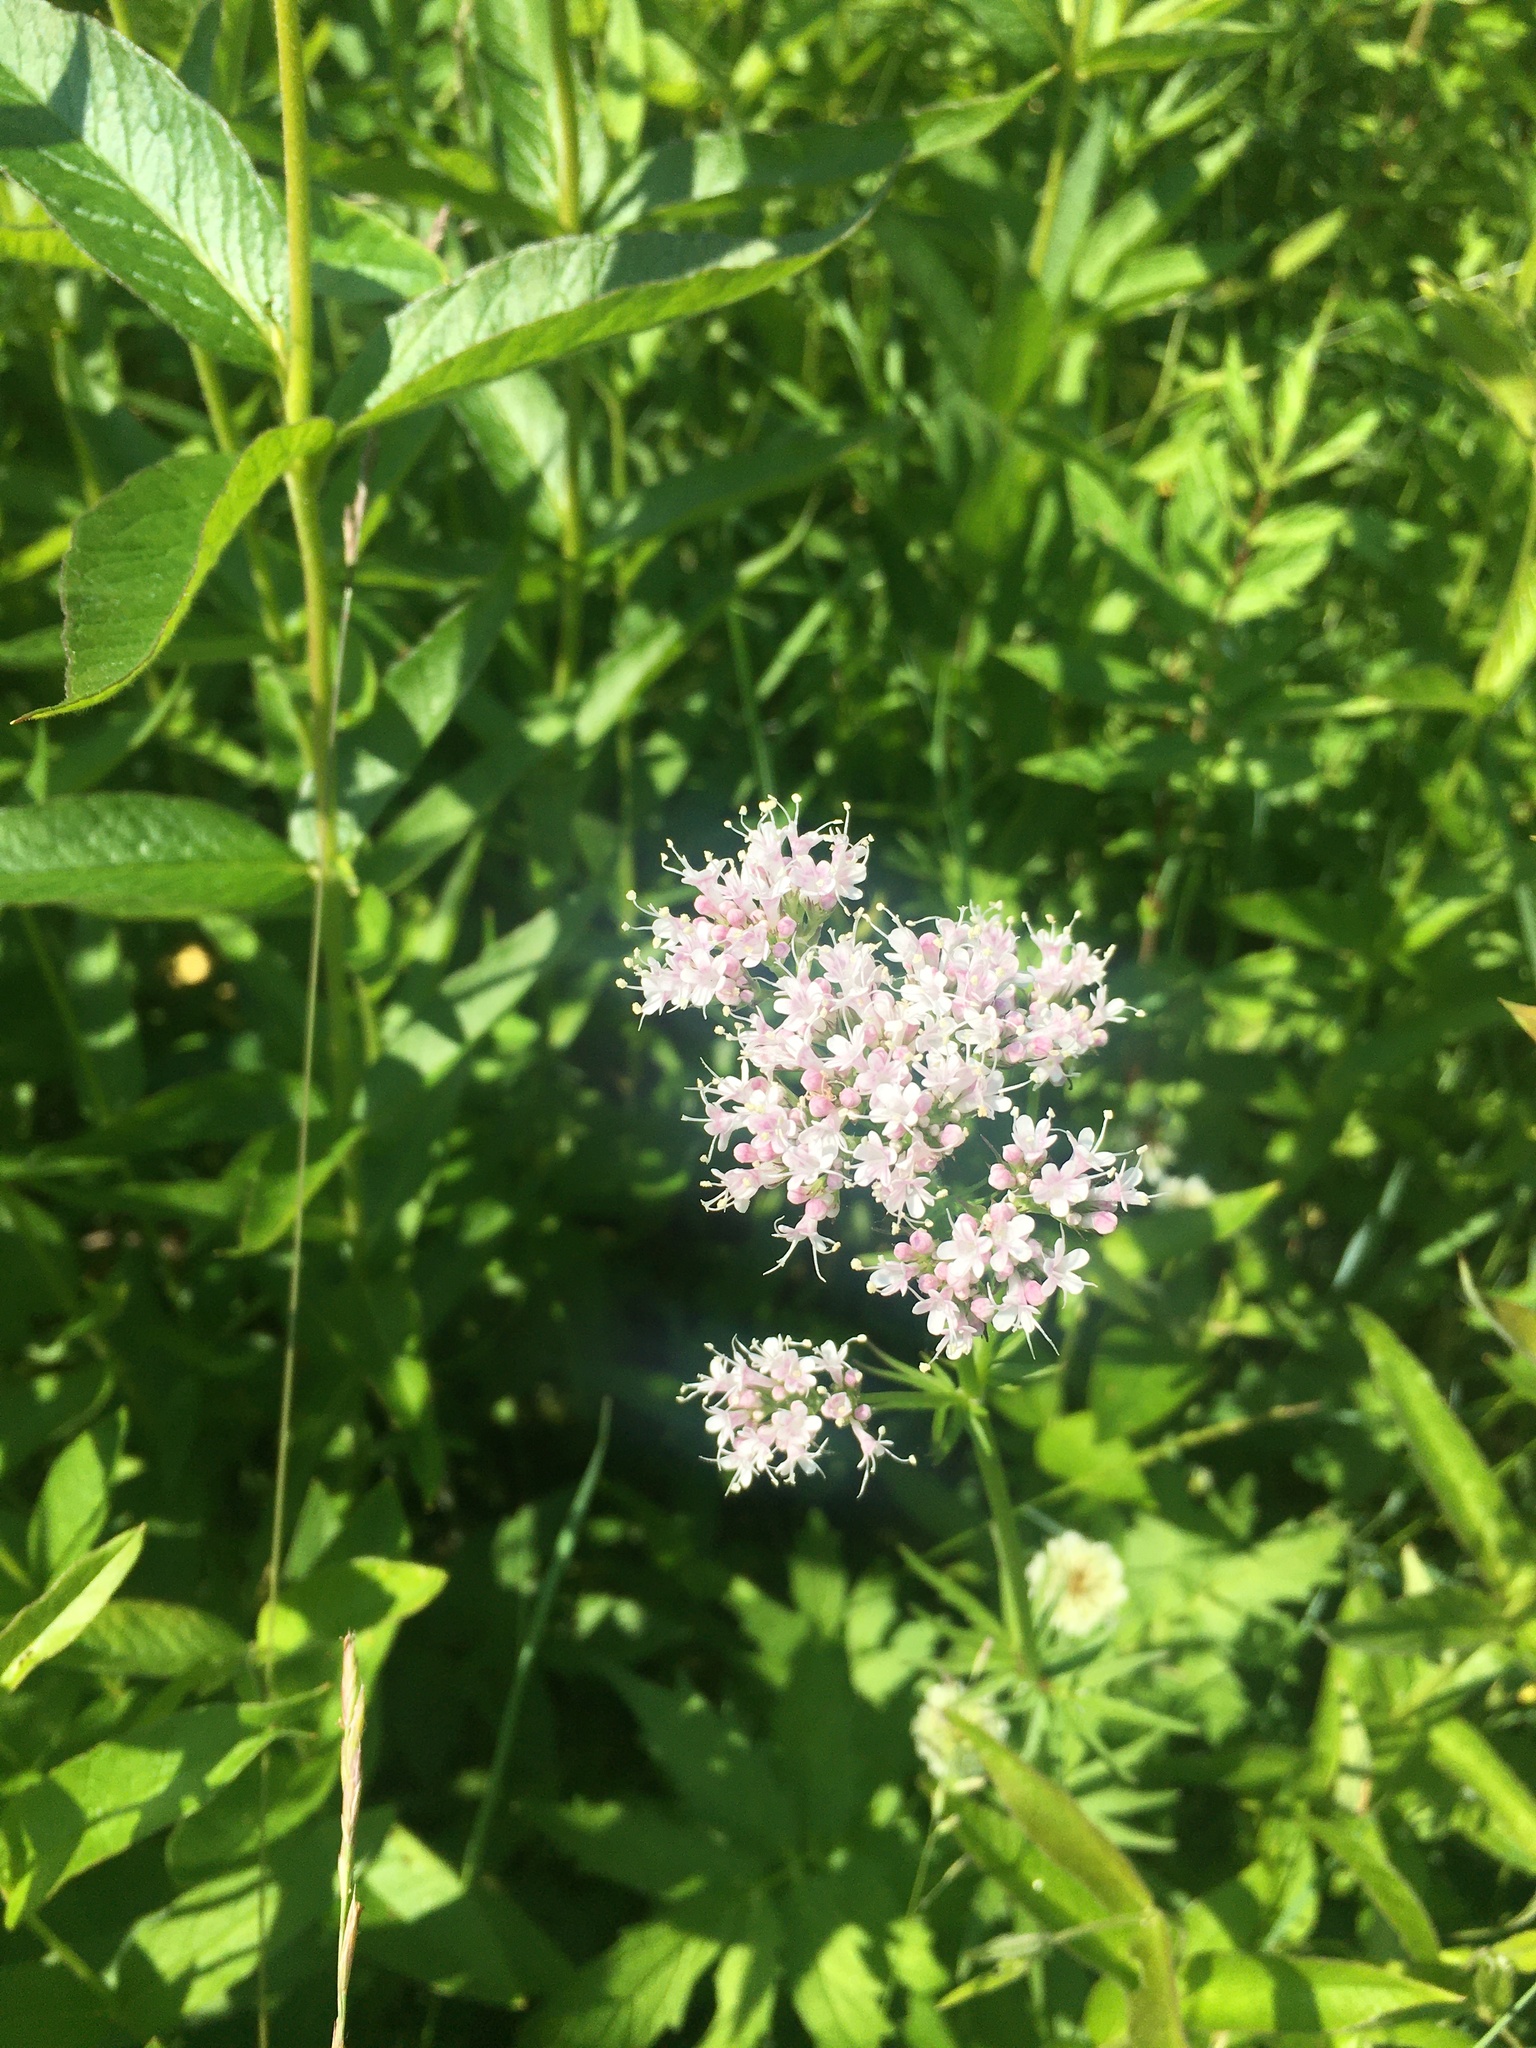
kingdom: Plantae
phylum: Tracheophyta
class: Magnoliopsida
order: Dipsacales
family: Caprifoliaceae
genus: Valeriana
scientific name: Valeriana officinalis
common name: Common valerian
